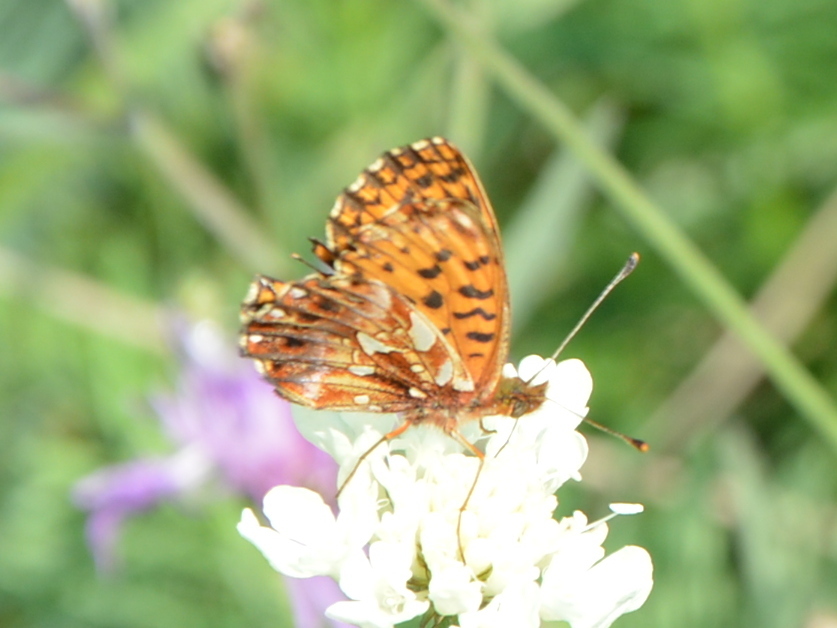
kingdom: Animalia
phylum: Arthropoda
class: Insecta
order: Lepidoptera
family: Nymphalidae
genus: Boloria
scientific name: Boloria dia
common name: Weaver's fritillary
